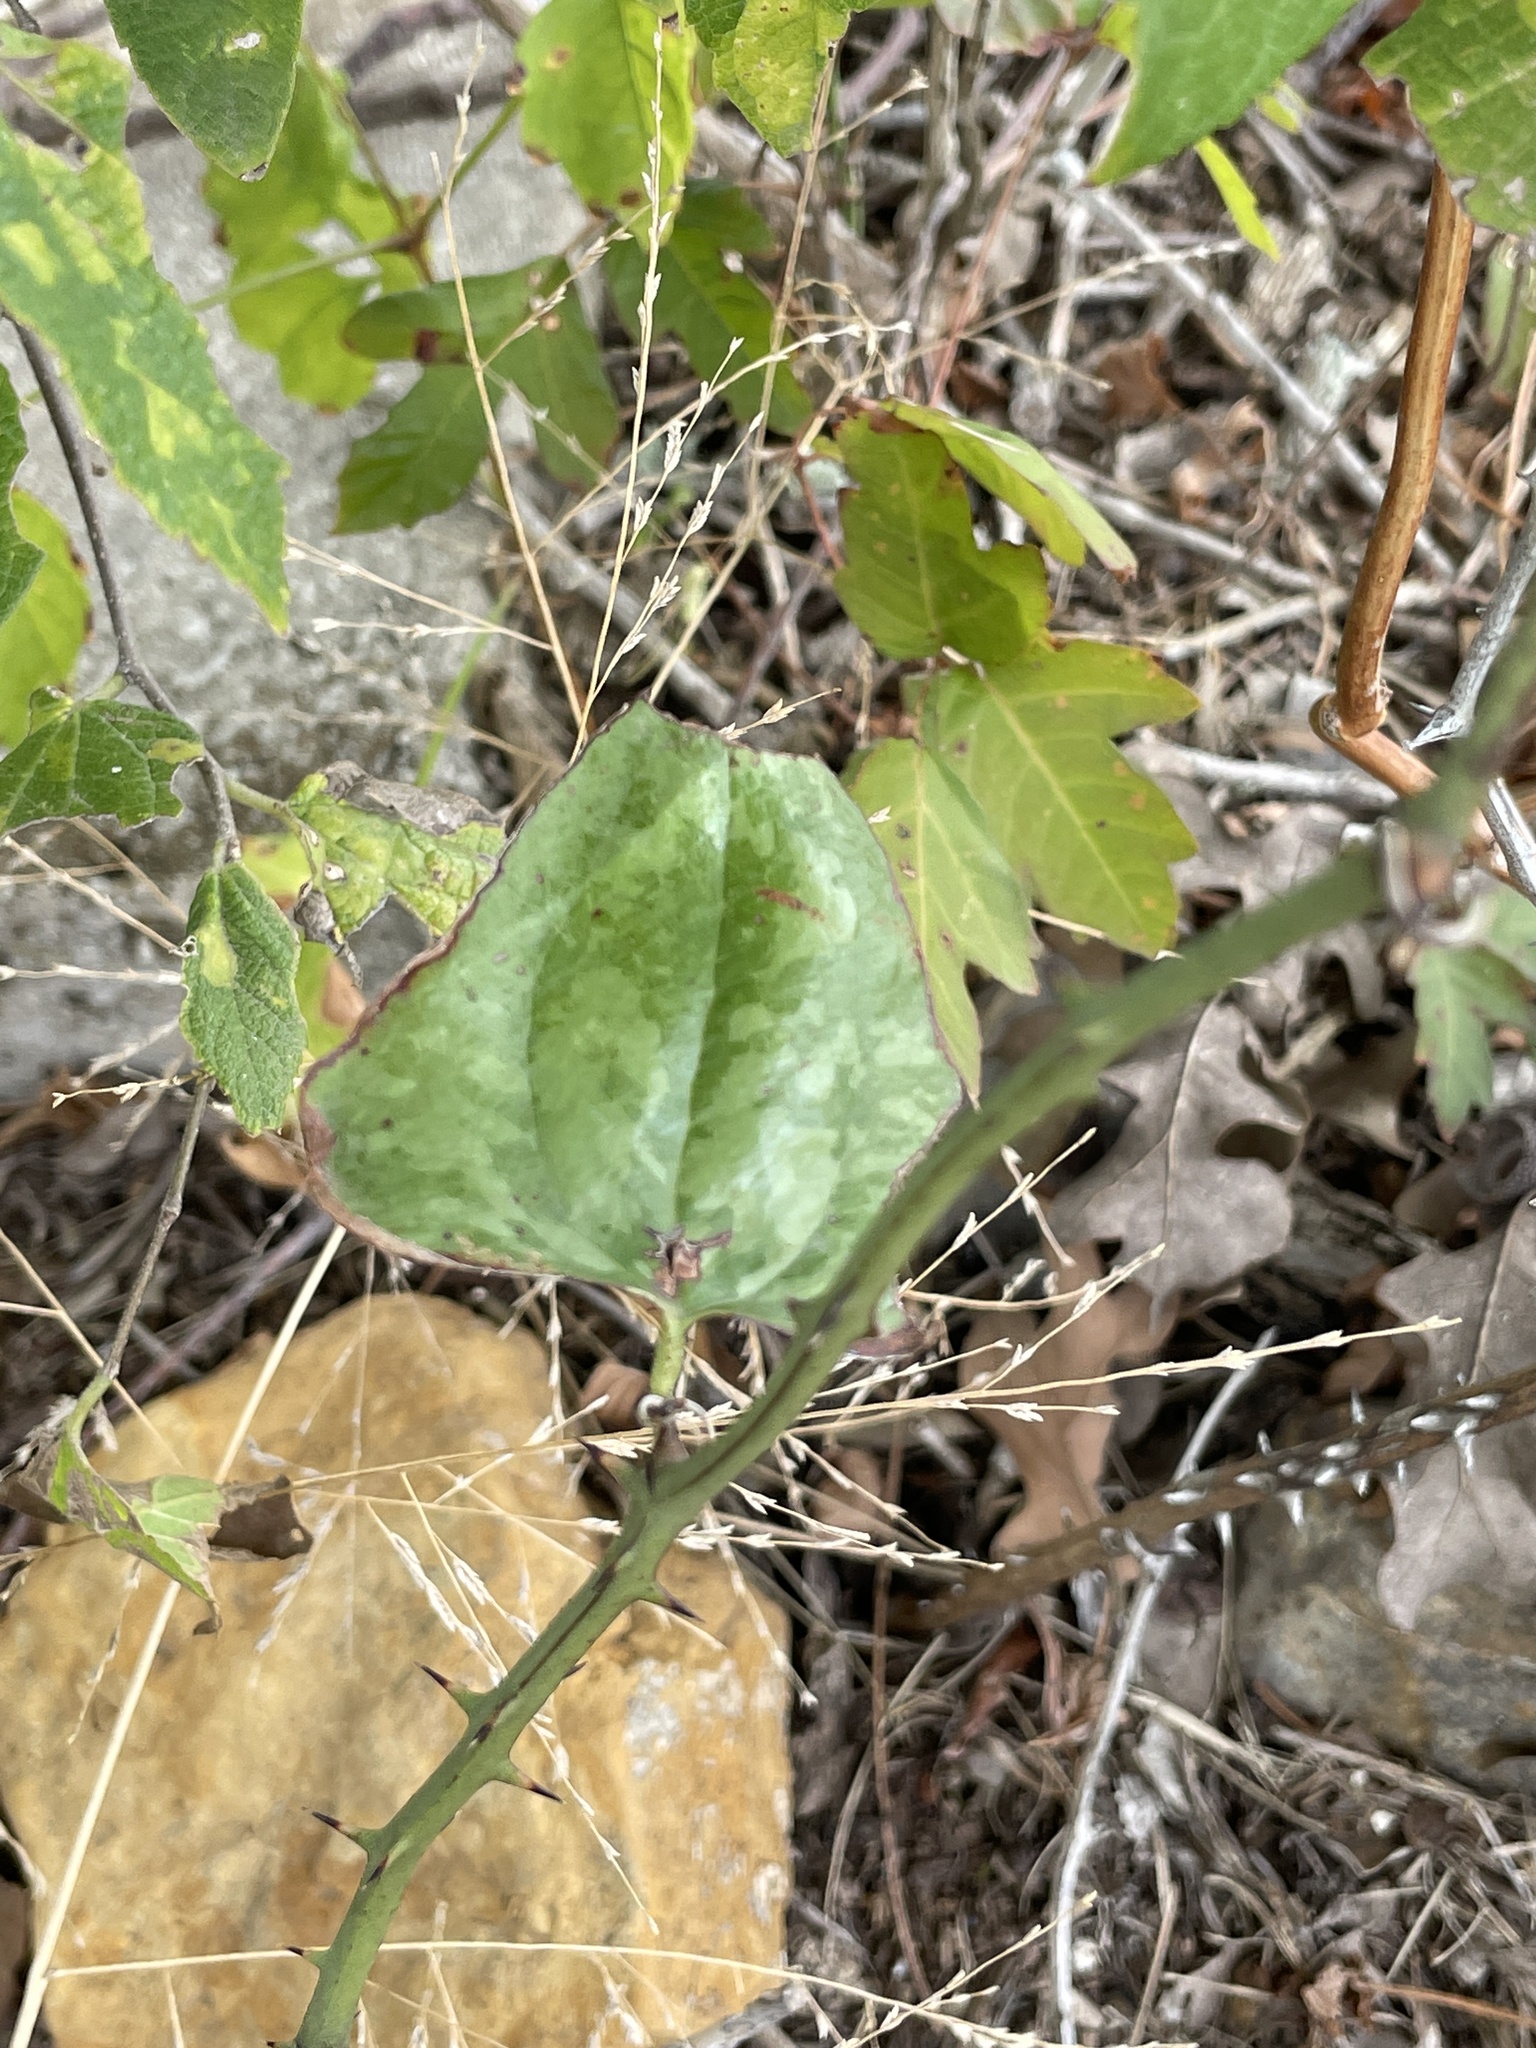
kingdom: Plantae
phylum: Tracheophyta
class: Liliopsida
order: Liliales
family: Smilacaceae
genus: Smilax
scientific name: Smilax bona-nox
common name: Catbrier
